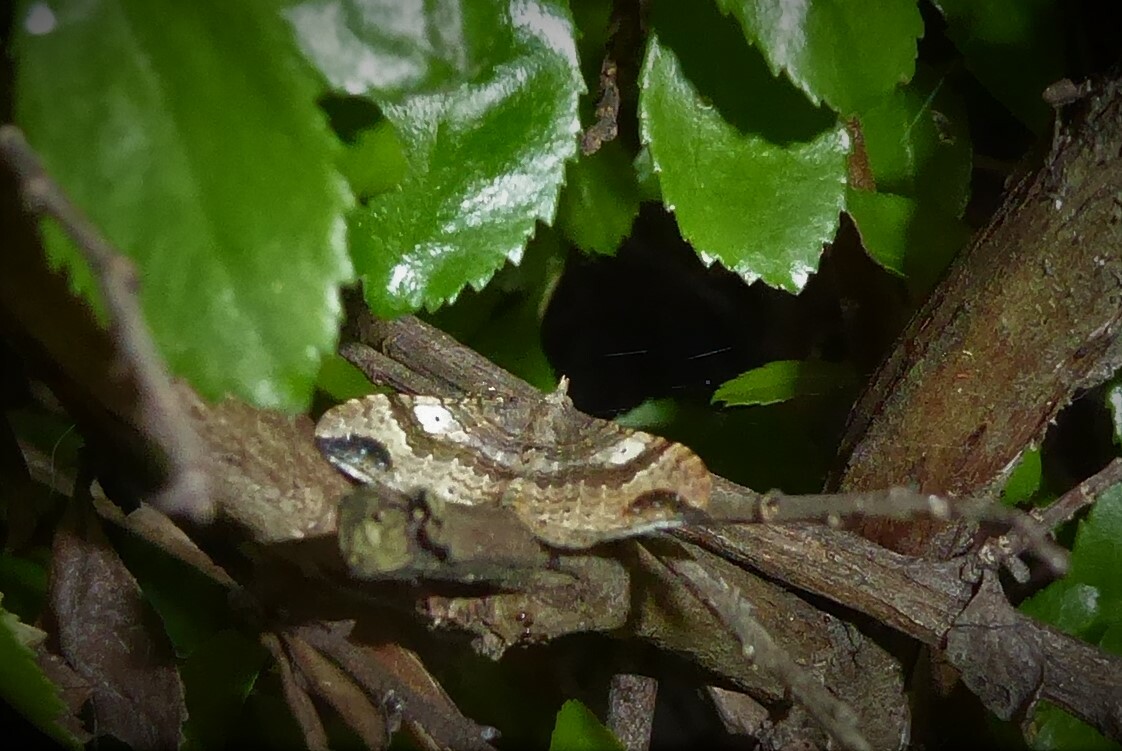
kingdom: Animalia
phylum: Arthropoda
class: Insecta
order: Lepidoptera
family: Geometridae
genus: Homodotis
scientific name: Homodotis megaspilata
